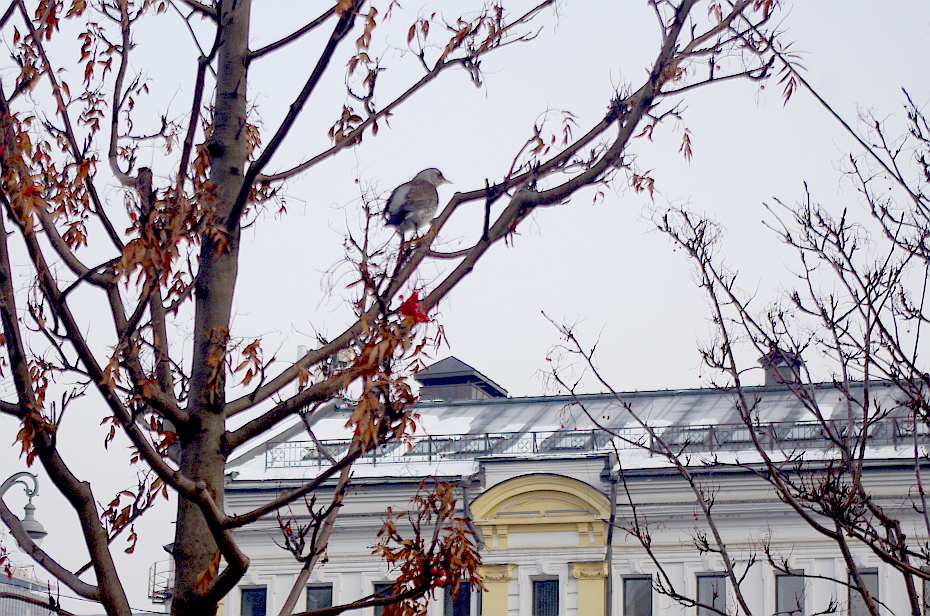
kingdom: Animalia
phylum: Chordata
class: Aves
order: Passeriformes
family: Turdidae
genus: Turdus
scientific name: Turdus pilaris
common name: Fieldfare
